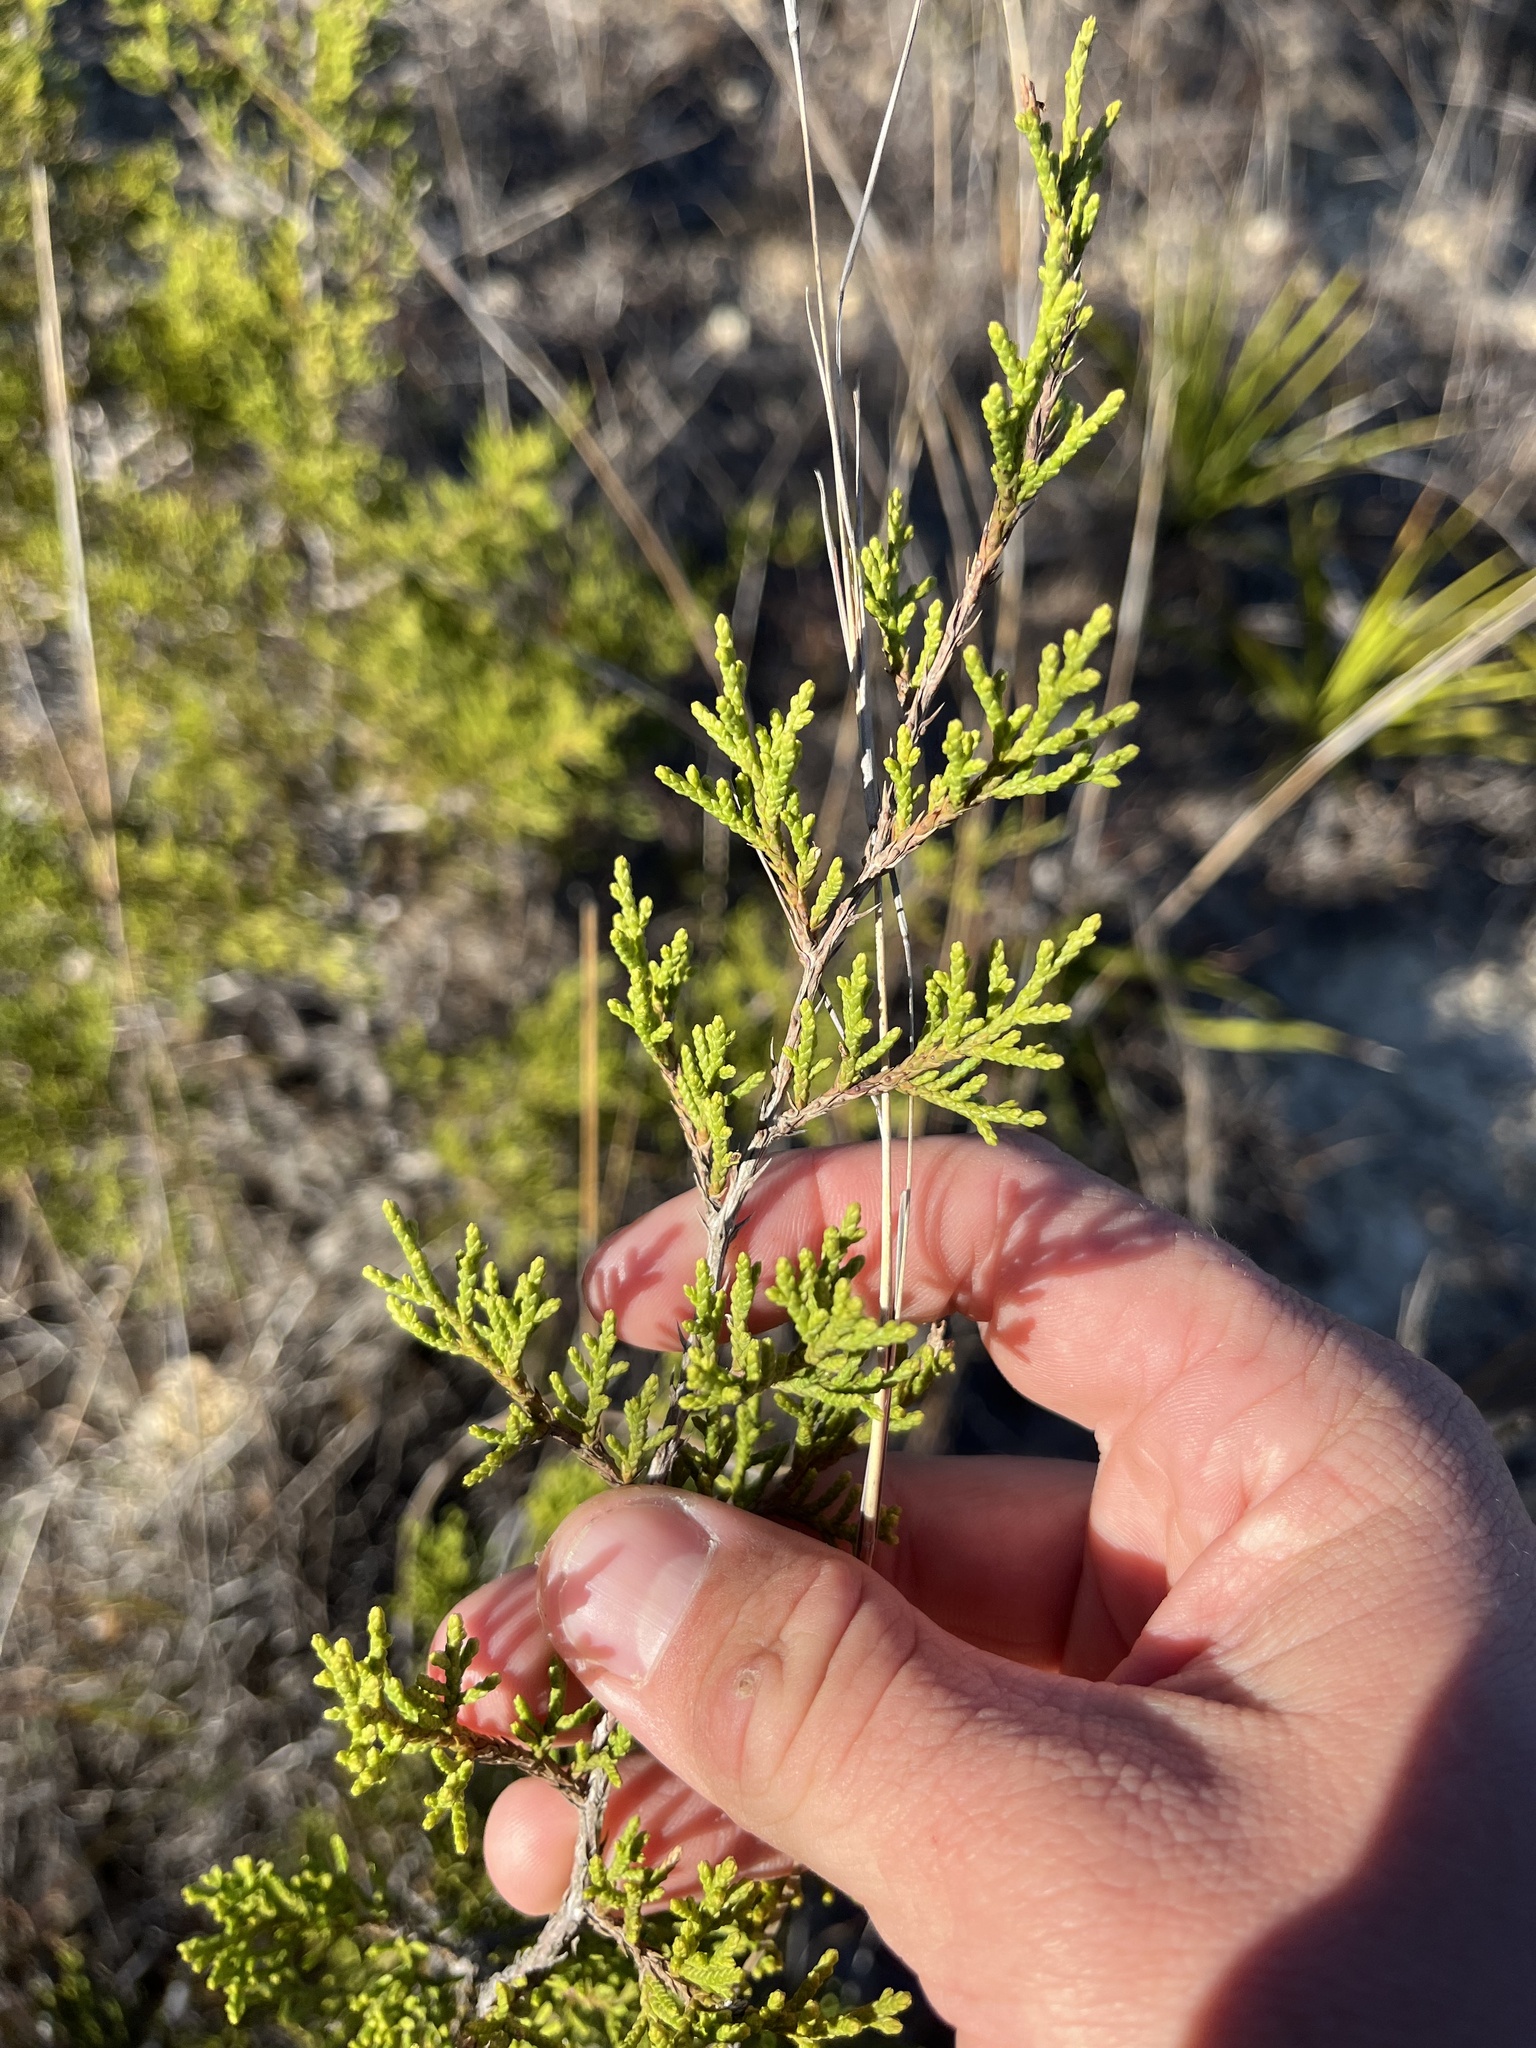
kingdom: Plantae
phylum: Tracheophyta
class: Pinopsida
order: Pinales
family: Cupressaceae
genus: Juniperus
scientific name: Juniperus ashei
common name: Mexican juniper
